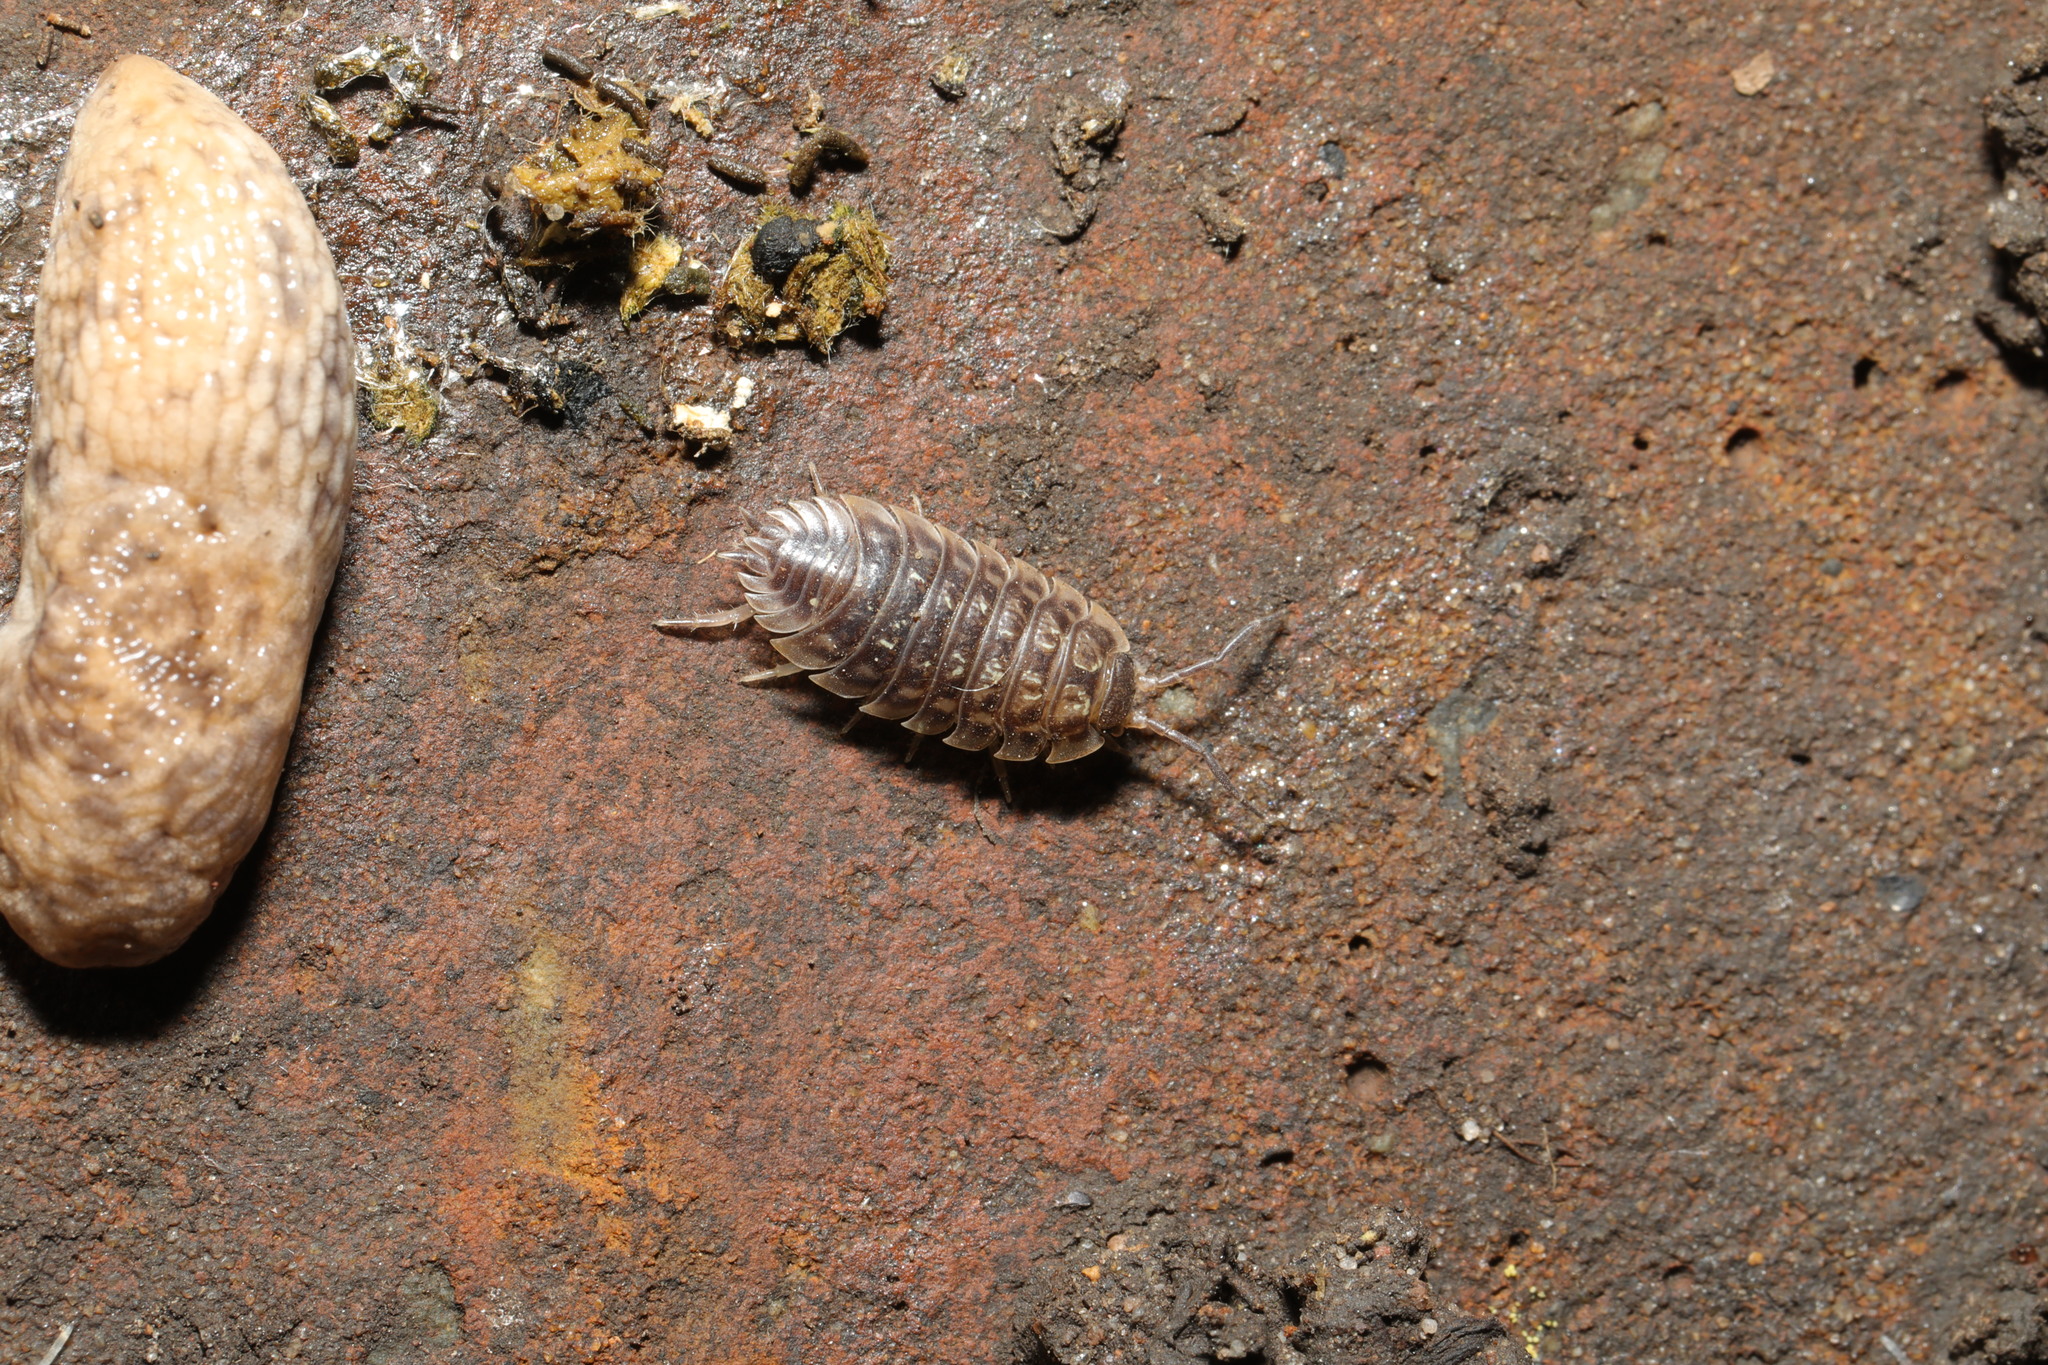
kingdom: Animalia
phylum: Arthropoda
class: Malacostraca
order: Isopoda
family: Oniscidae
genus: Oniscus
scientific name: Oniscus asellus
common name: Common shiny woodlouse
